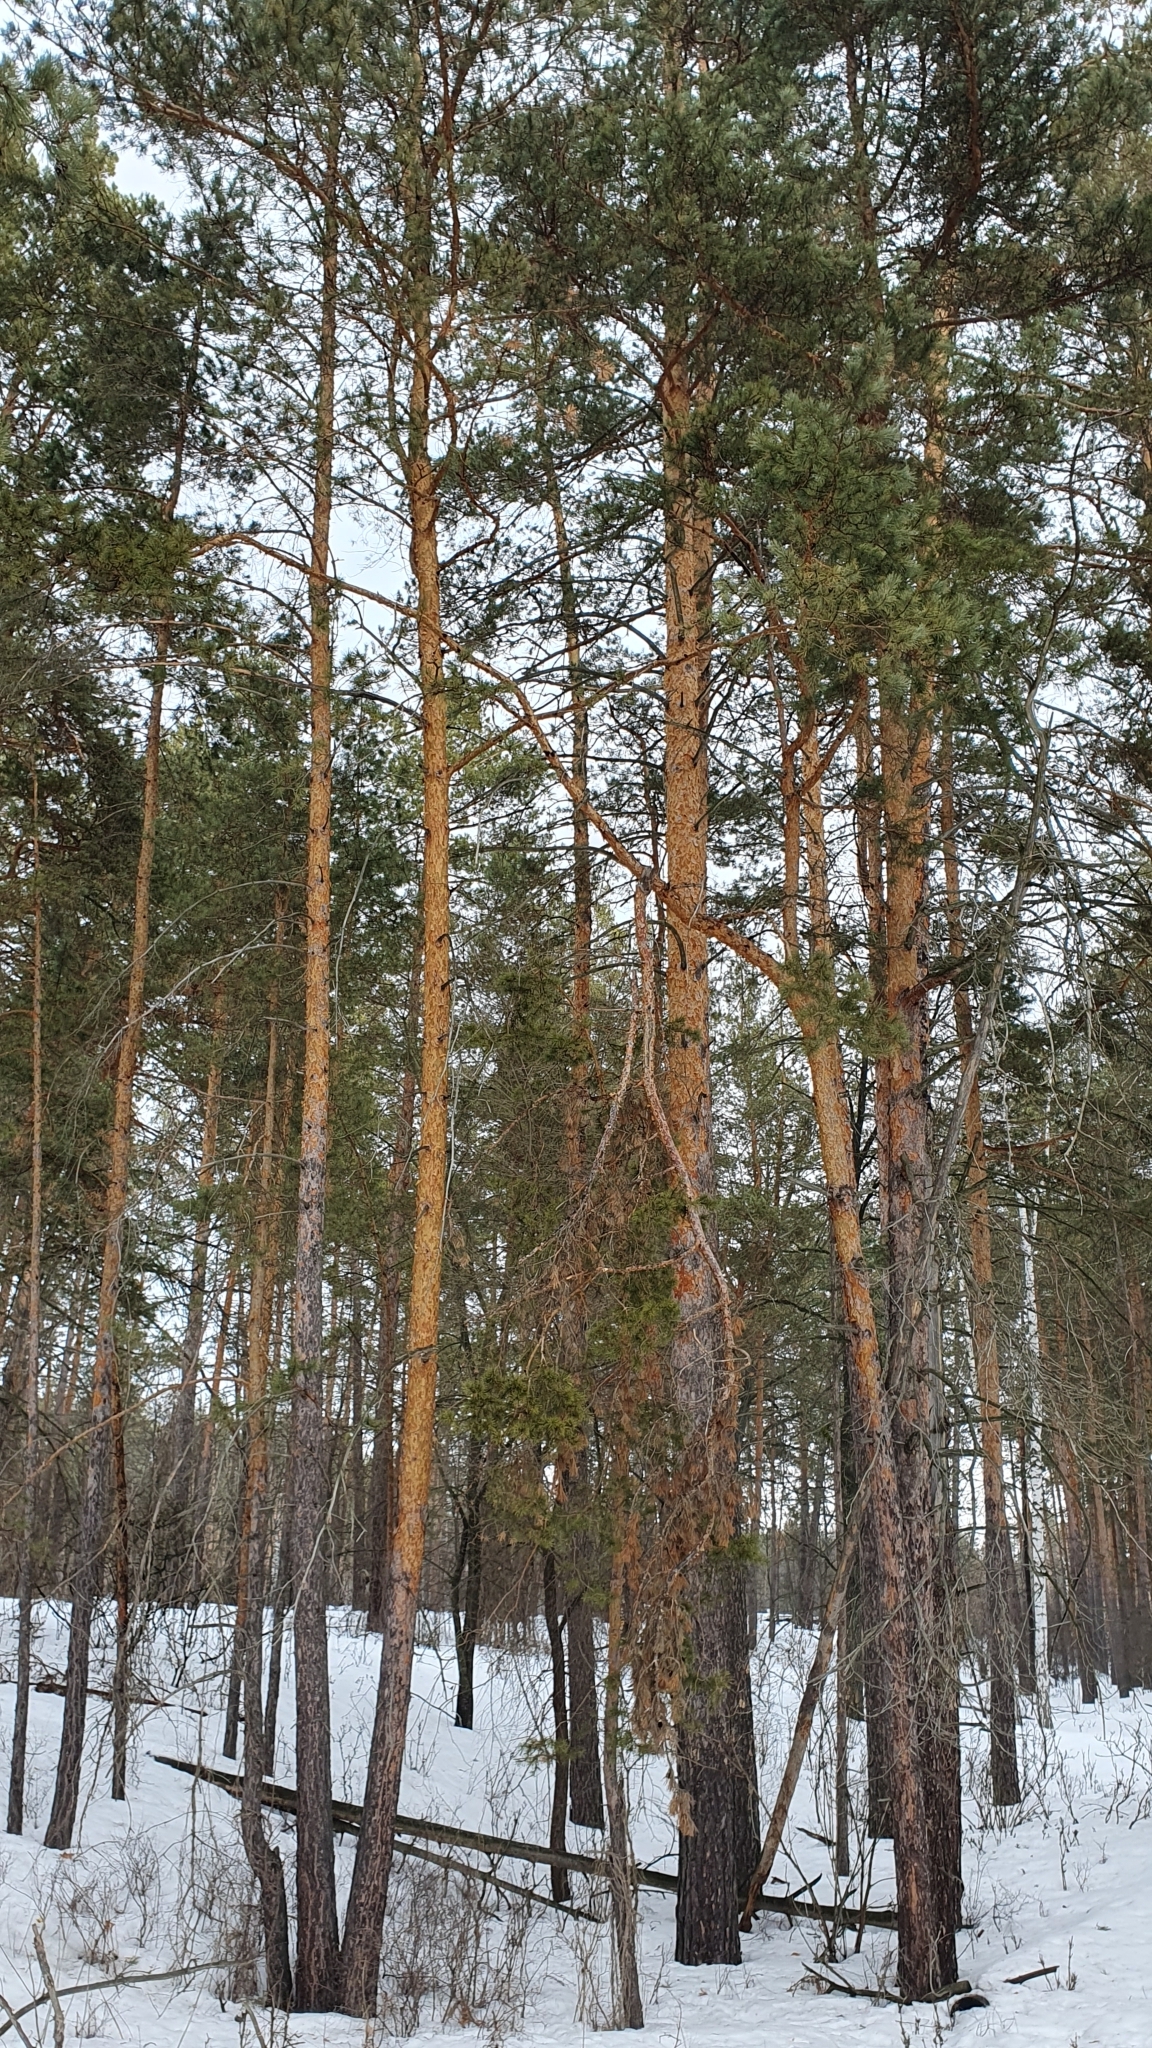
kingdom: Plantae
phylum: Tracheophyta
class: Pinopsida
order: Pinales
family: Pinaceae
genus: Pinus
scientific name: Pinus sylvestris
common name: Scots pine
